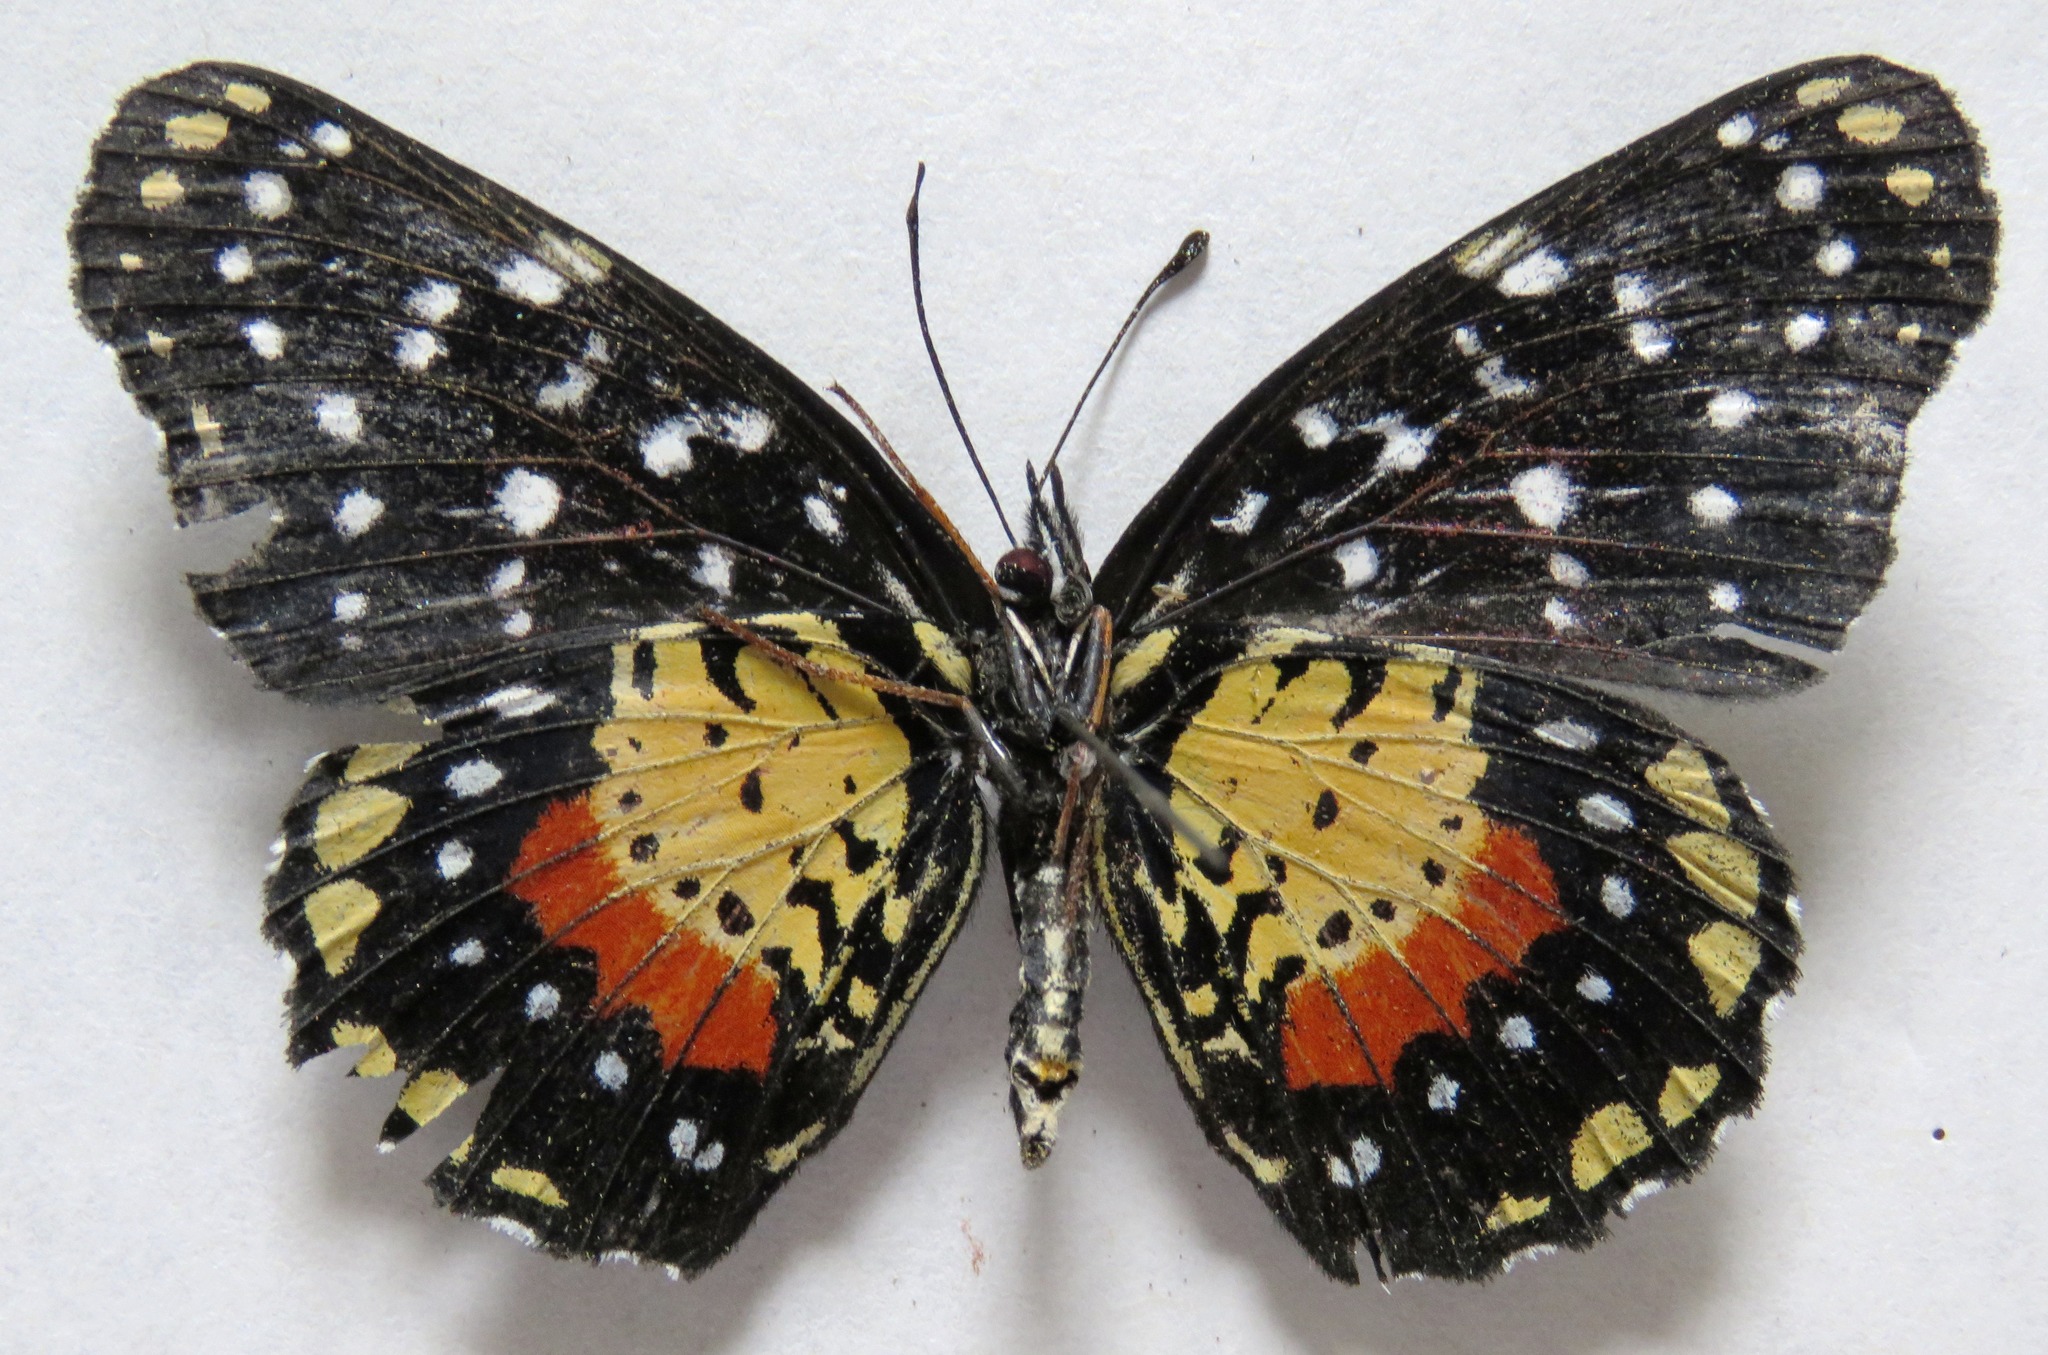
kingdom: Animalia
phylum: Arthropoda
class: Insecta
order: Lepidoptera
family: Nymphalidae
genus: Chlosyne
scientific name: Chlosyne janais
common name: Crimson patch
